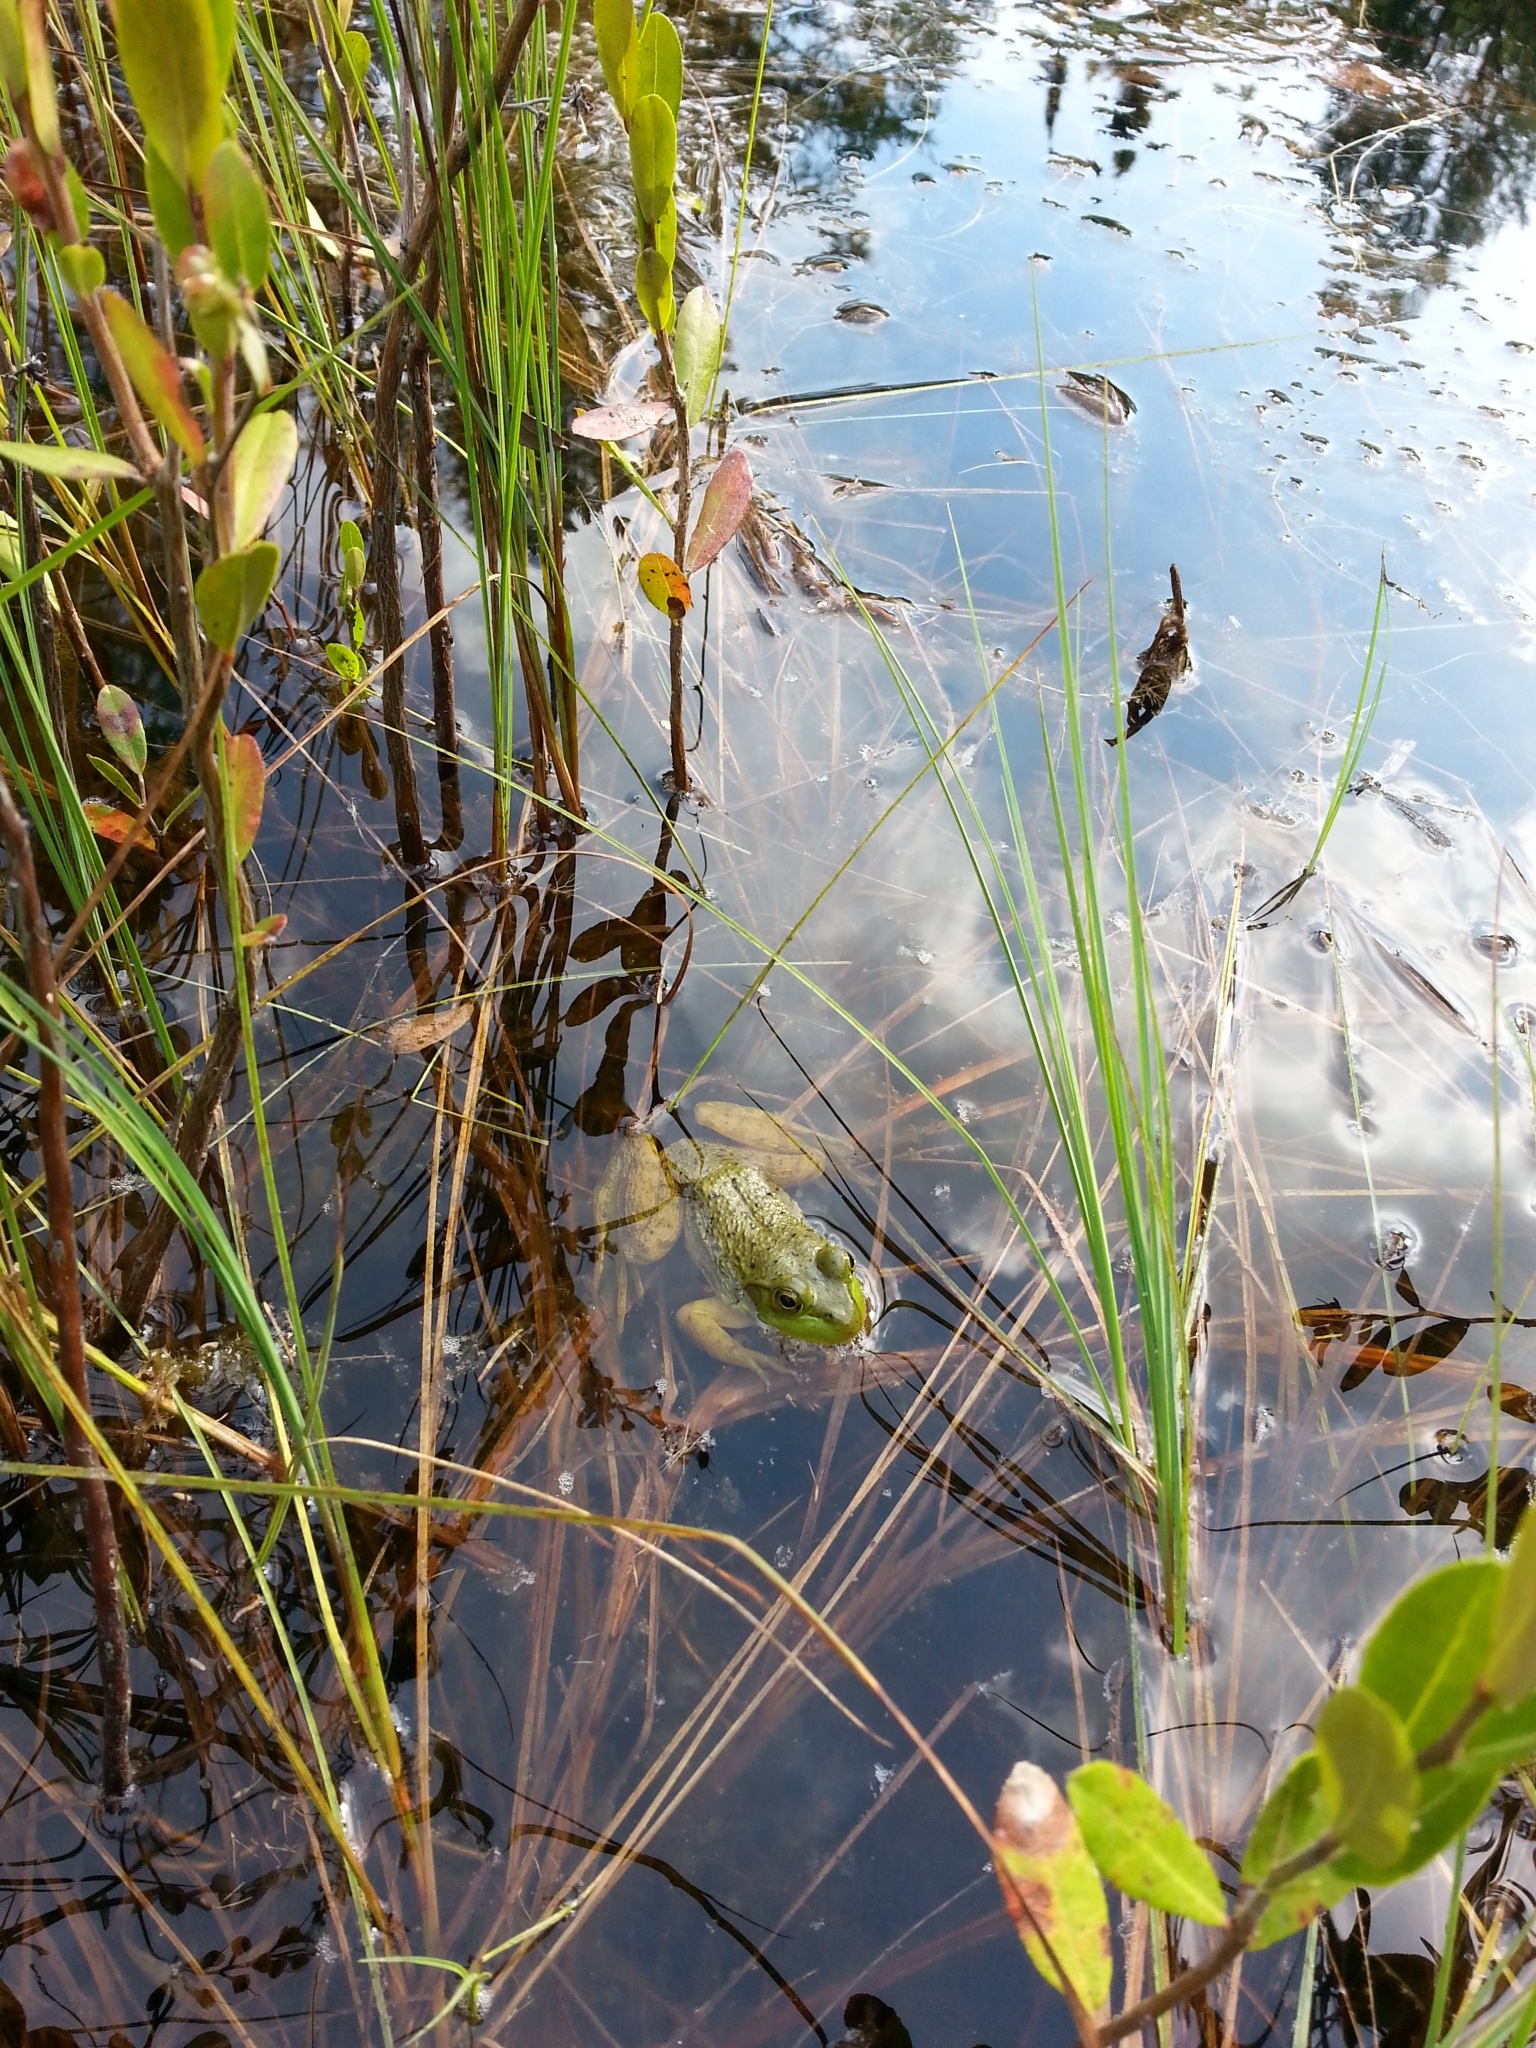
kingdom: Animalia
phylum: Chordata
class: Amphibia
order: Anura
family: Ranidae
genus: Lithobates
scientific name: Lithobates clamitans
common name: Green frog
